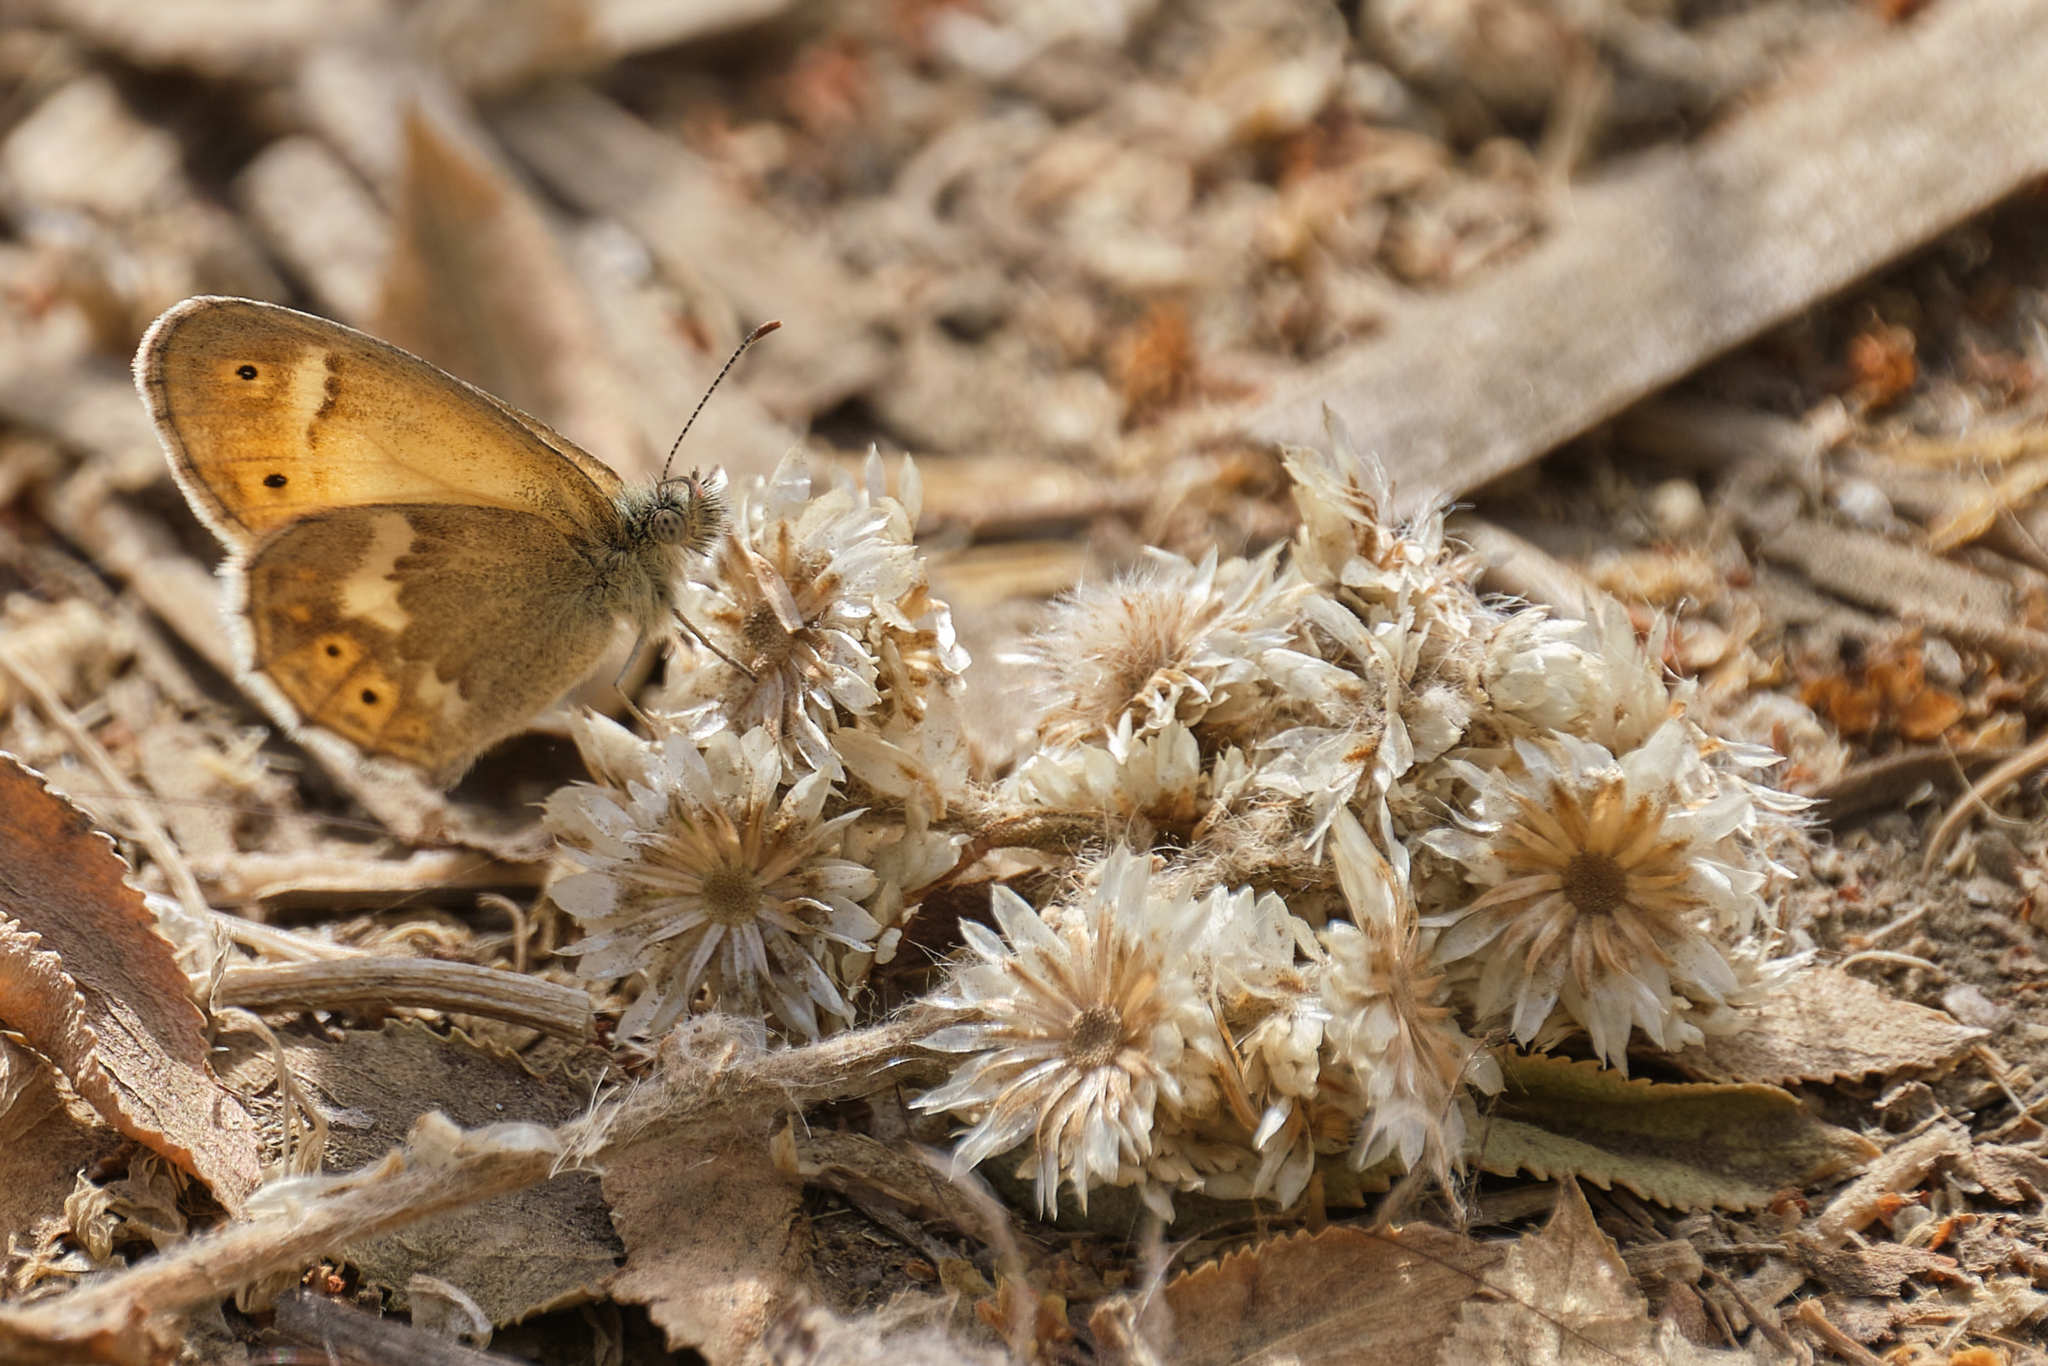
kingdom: Animalia
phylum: Arthropoda
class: Insecta
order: Lepidoptera
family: Nymphalidae
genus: Coenonympha
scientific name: Coenonympha california
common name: Common ringlet
